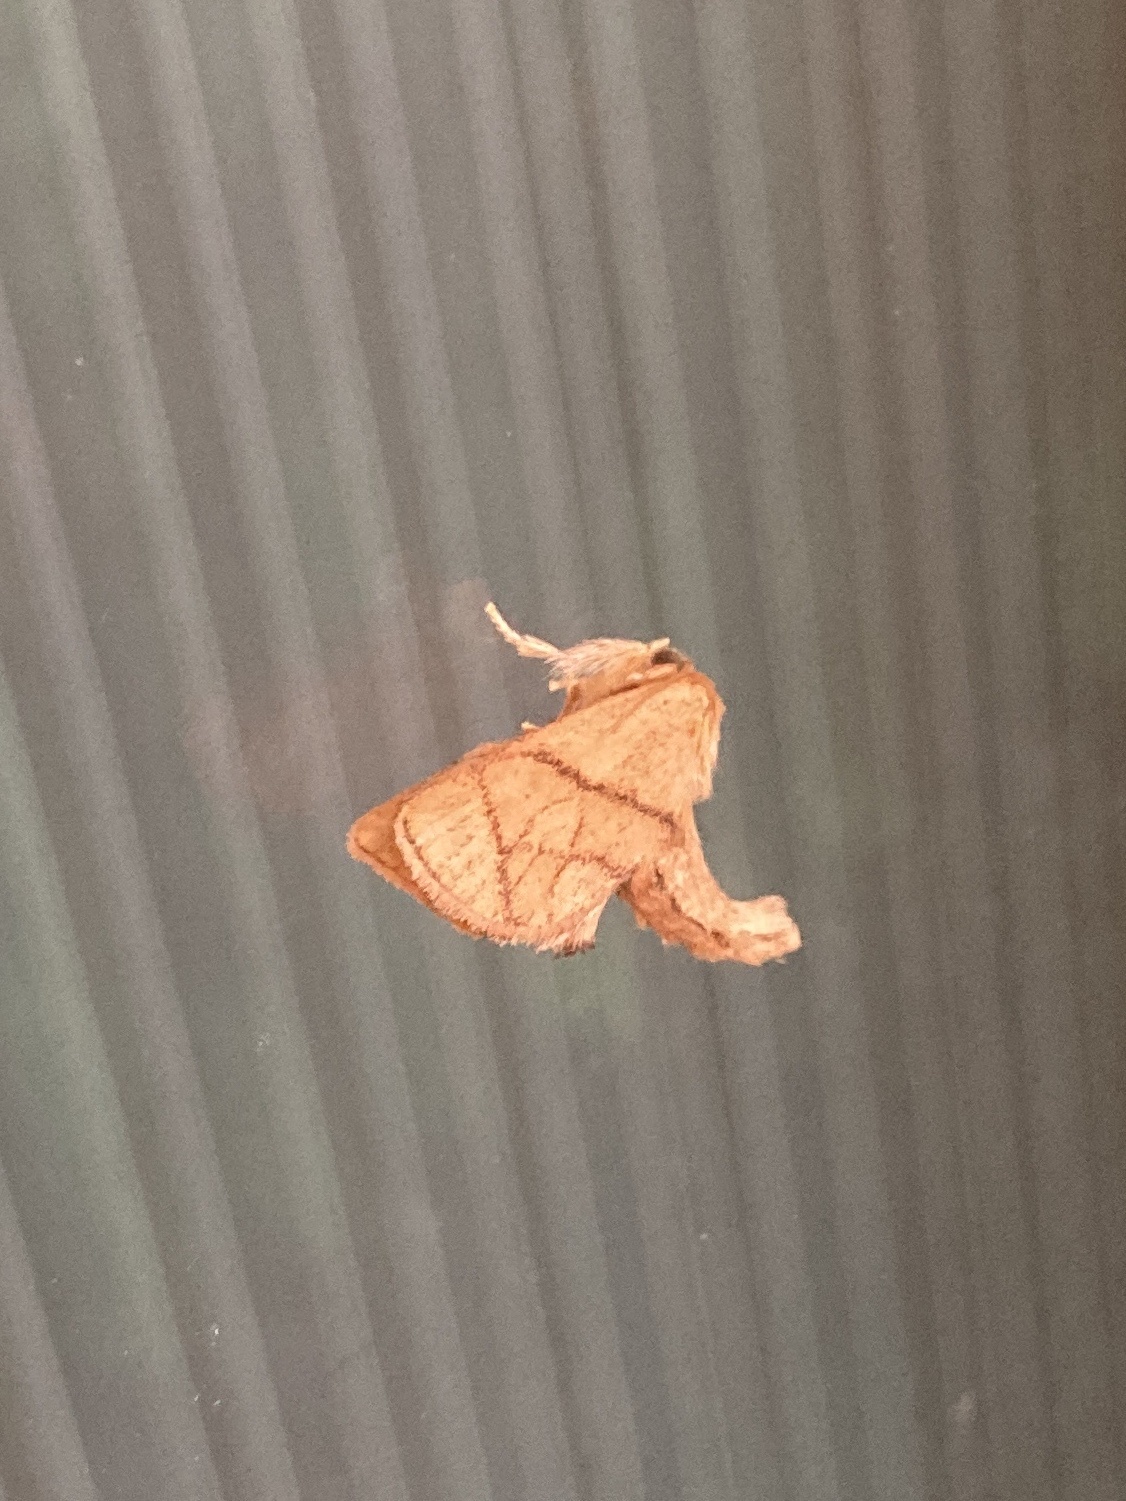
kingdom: Animalia
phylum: Arthropoda
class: Insecta
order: Lepidoptera
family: Limacodidae
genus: Apoda
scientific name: Apoda y-inversa
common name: Yellow-collared slug moth
